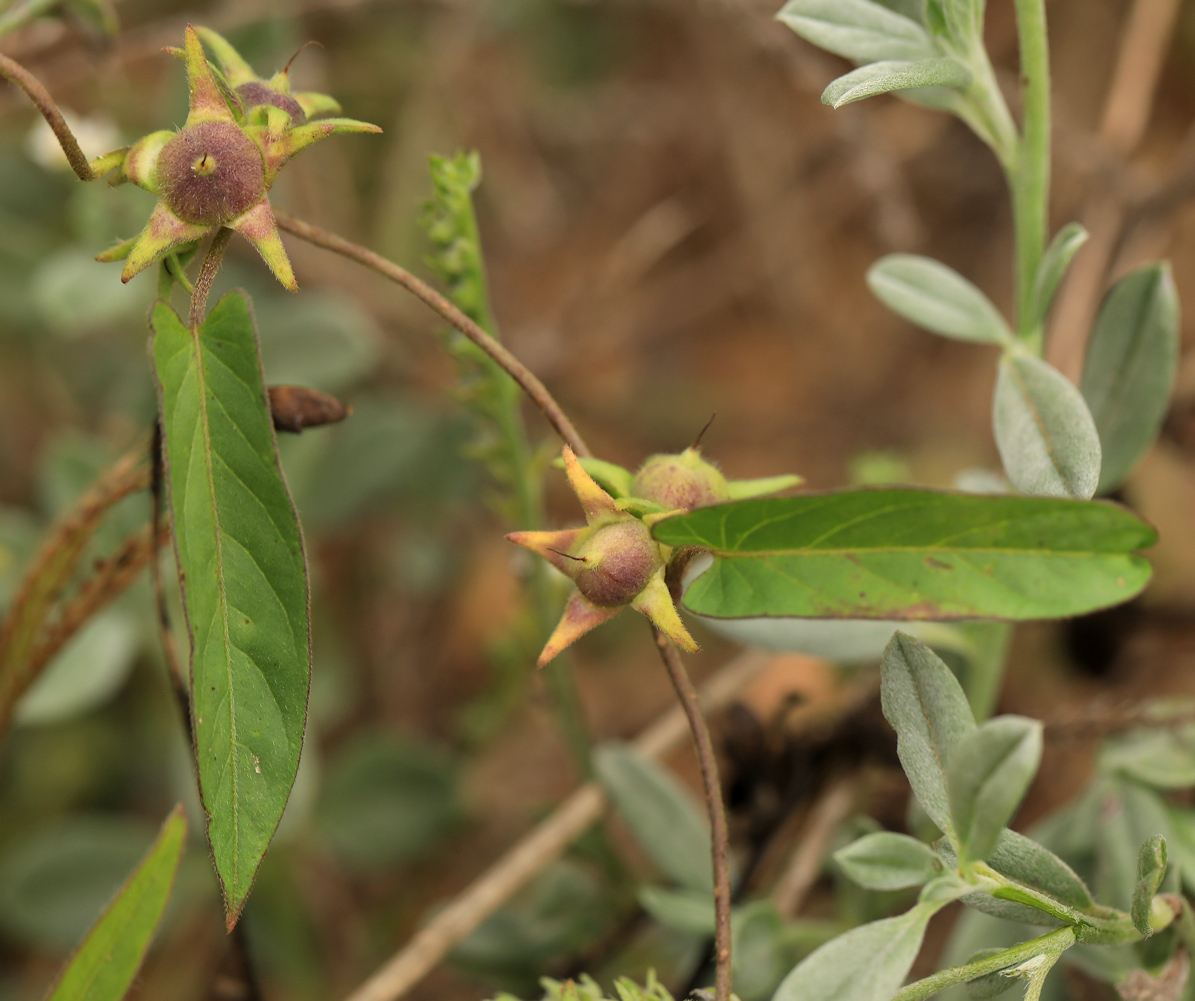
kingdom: Plantae
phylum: Tracheophyta
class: Magnoliopsida
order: Solanales
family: Convolvulaceae
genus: Ipomoea
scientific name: Ipomoea gracilisepala
